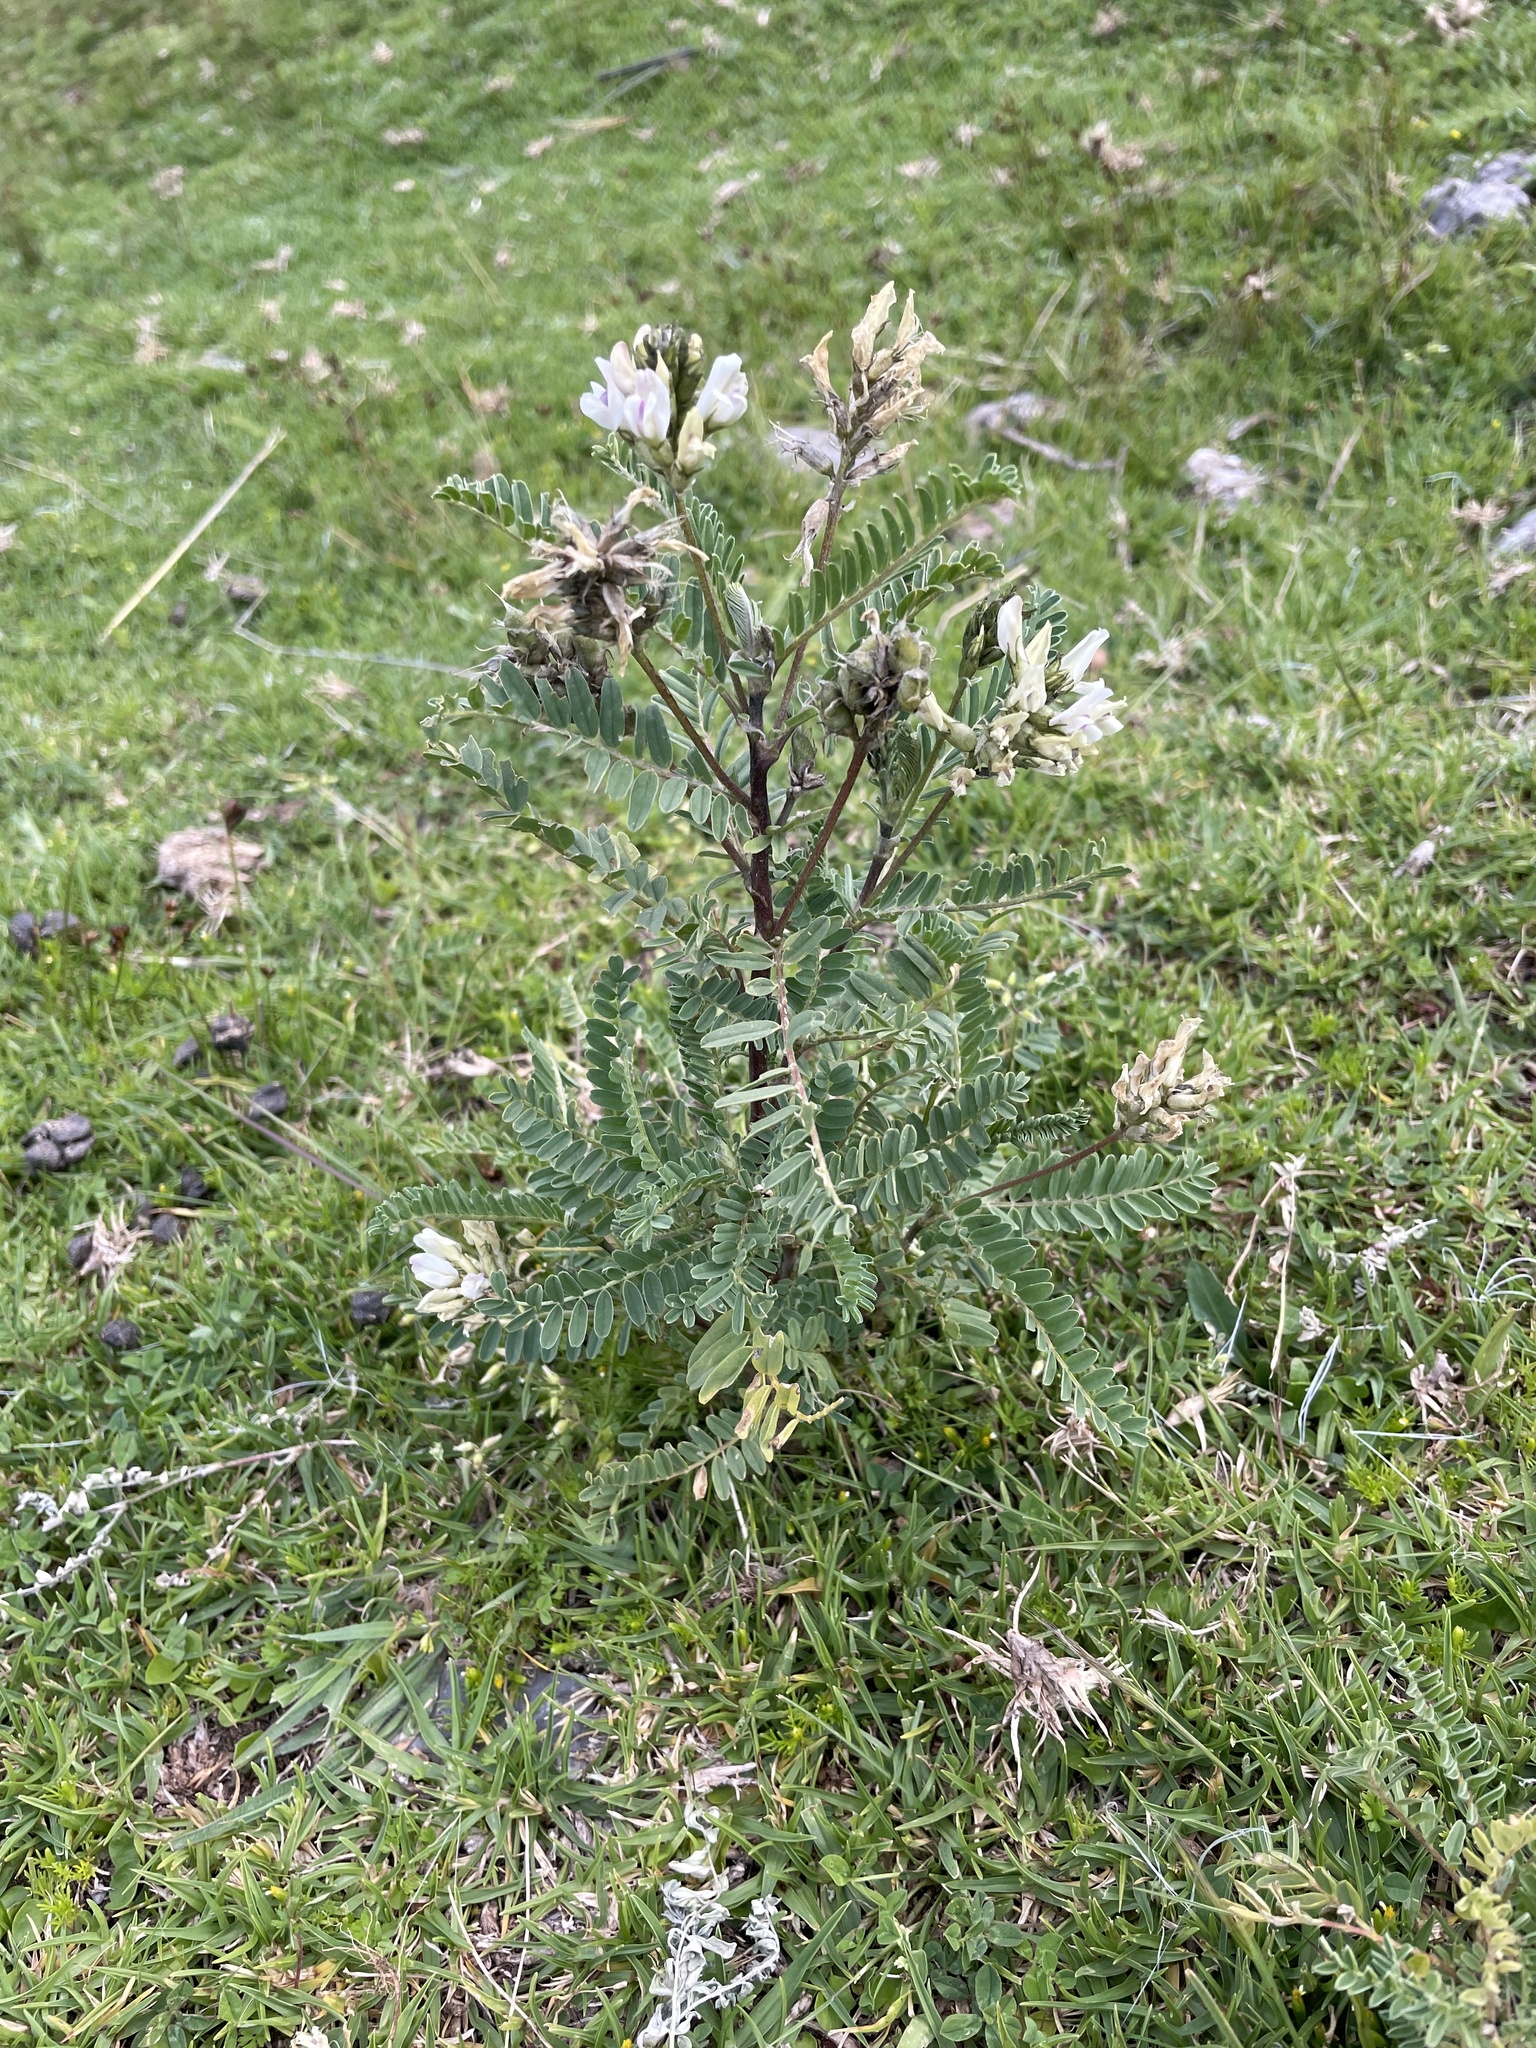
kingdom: Plantae
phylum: Tracheophyta
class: Magnoliopsida
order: Fabales
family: Fabaceae
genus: Astragalus
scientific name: Astragalus garbancillo
